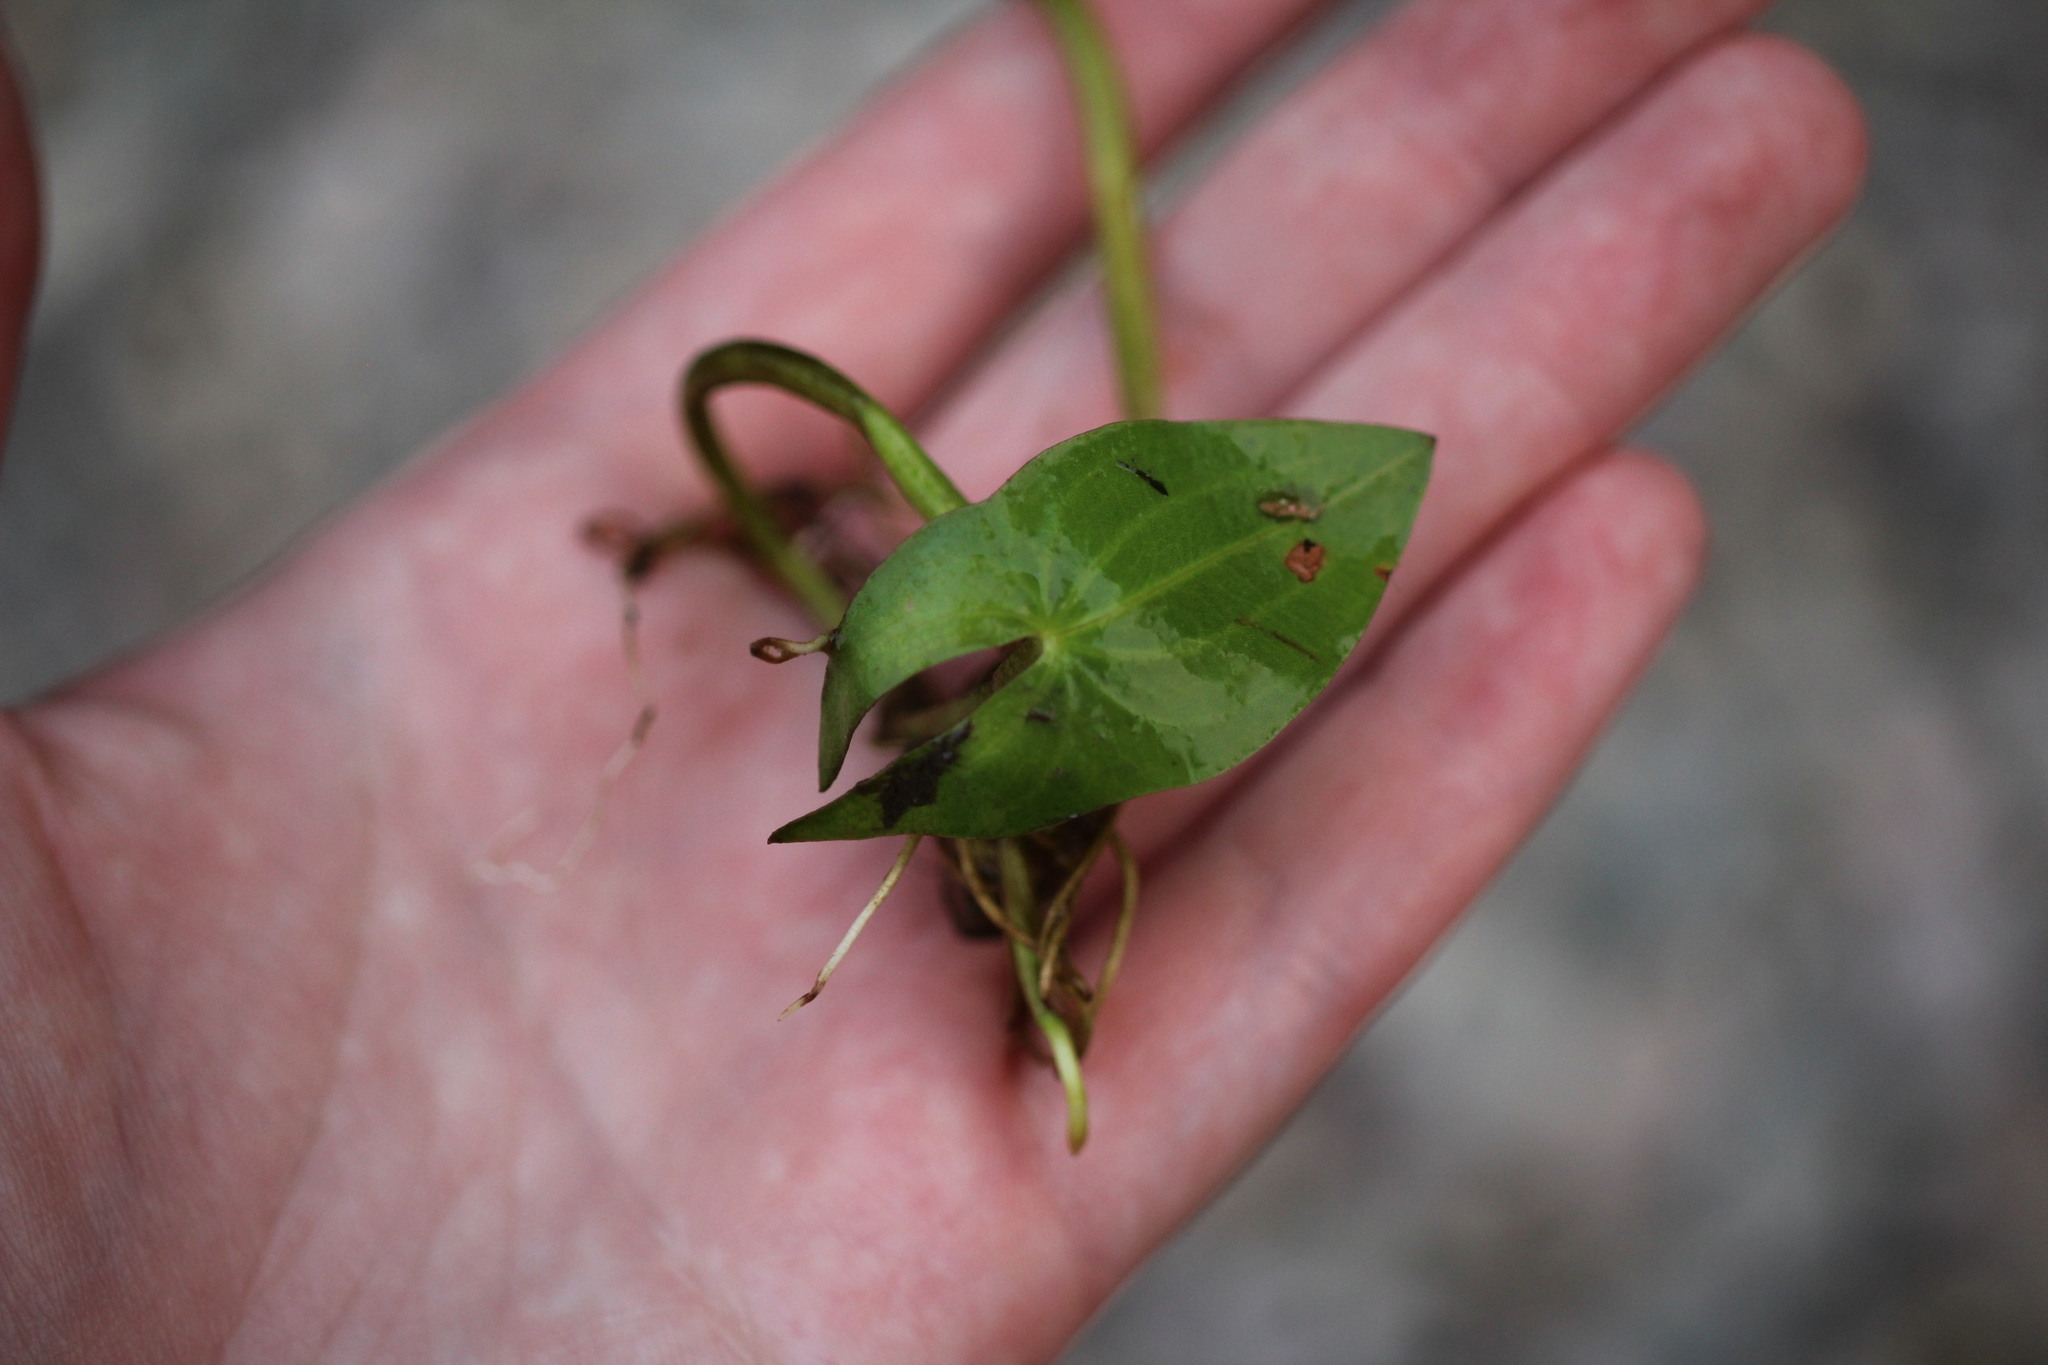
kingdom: Plantae
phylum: Tracheophyta
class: Liliopsida
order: Alismatales
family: Alismataceae
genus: Sagittaria
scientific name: Sagittaria cuneata
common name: Northern arrowhead
